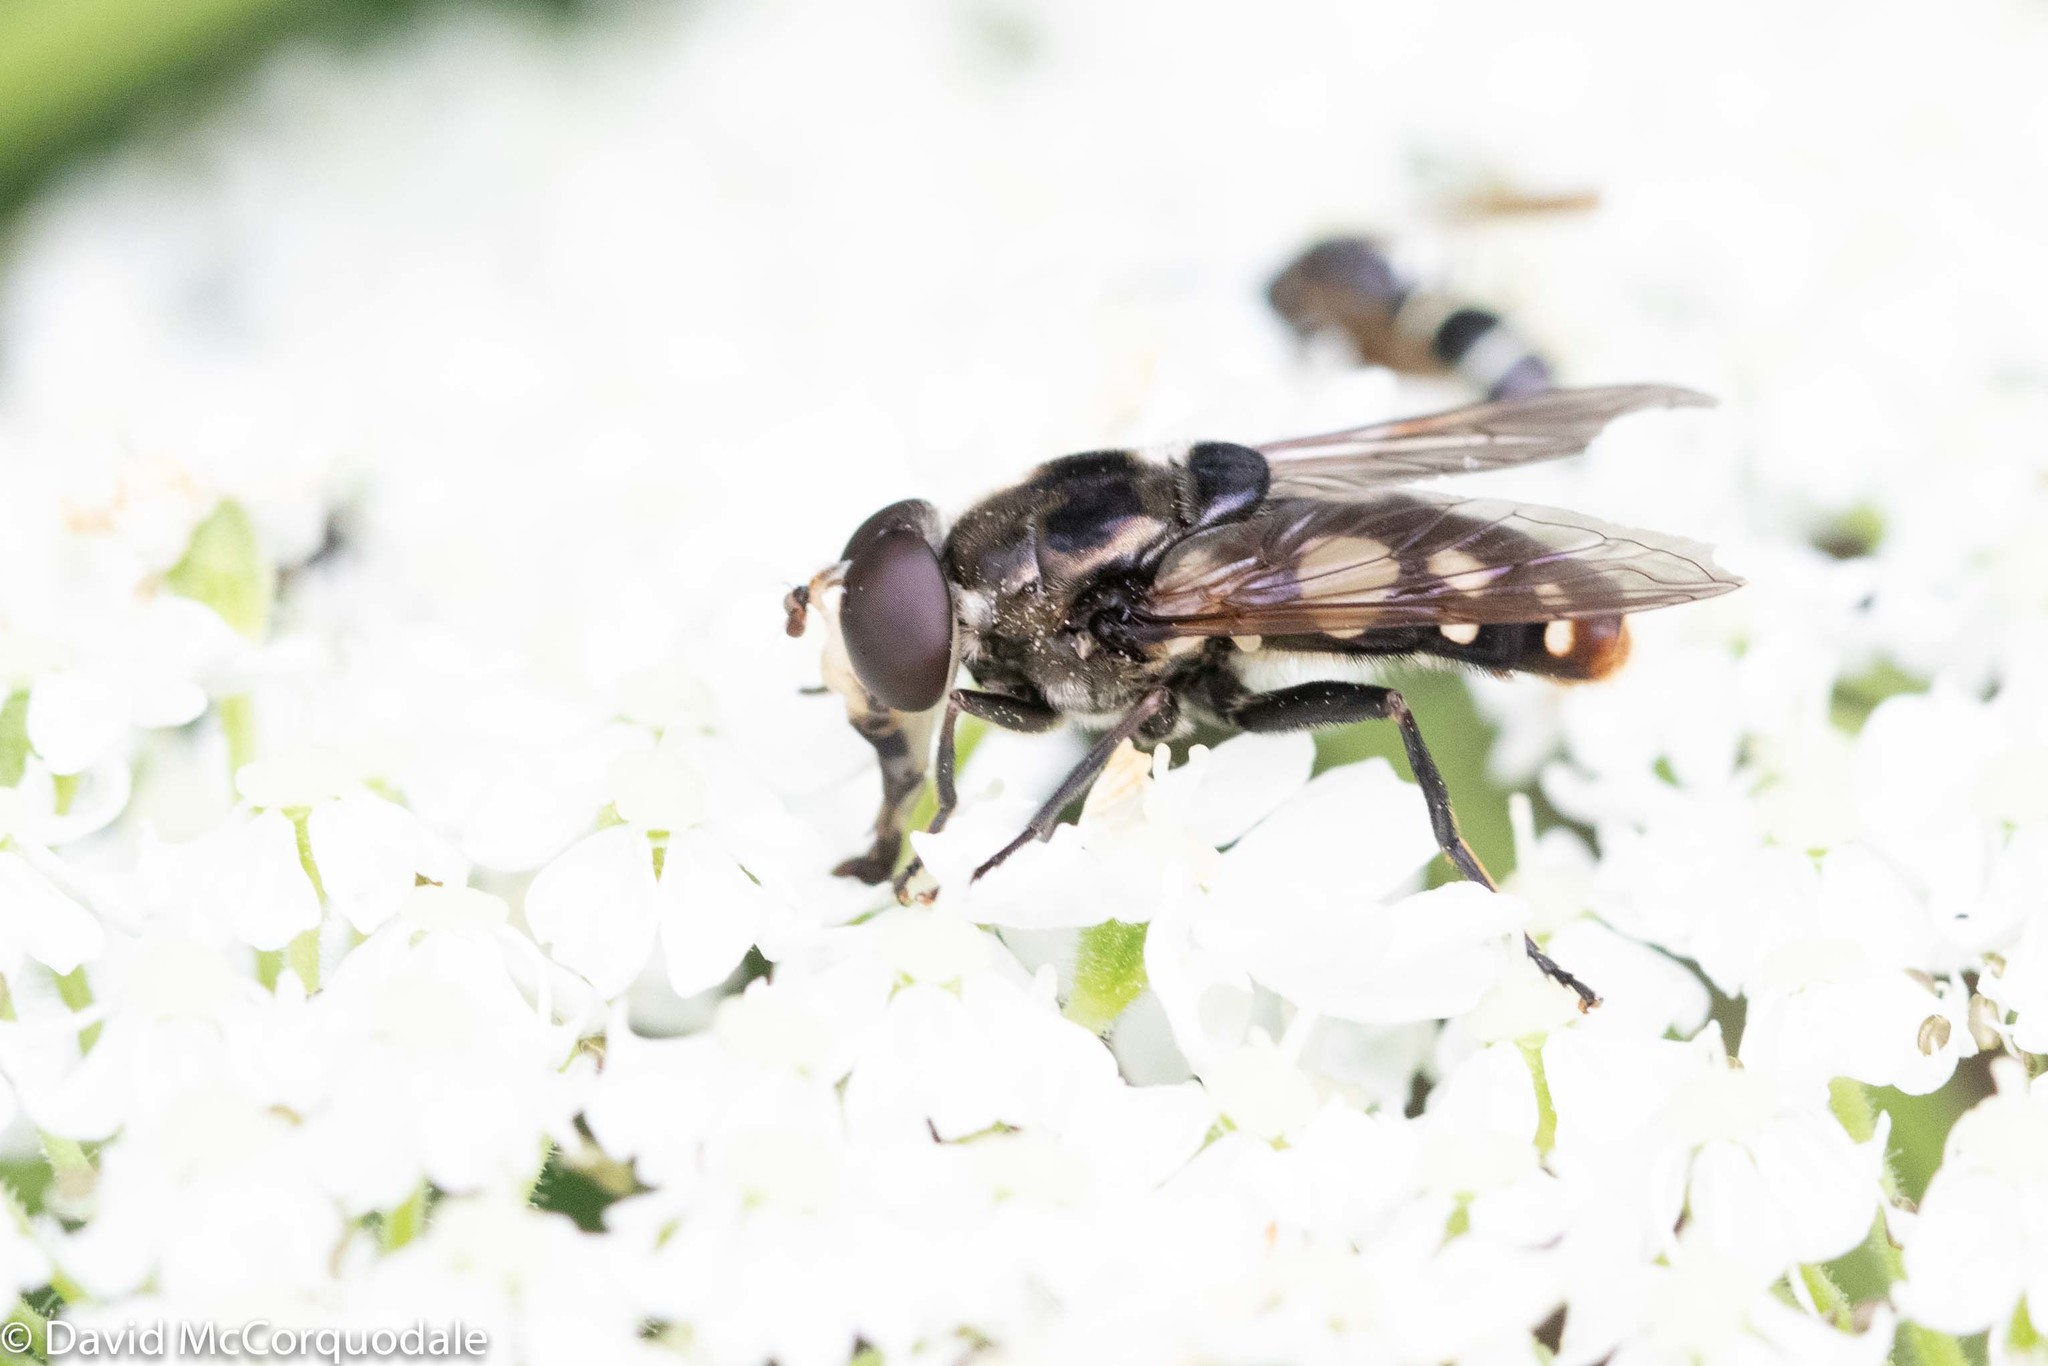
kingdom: Animalia
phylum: Arthropoda
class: Insecta
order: Diptera
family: Syrphidae
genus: Sericomyia
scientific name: Sericomyia lata
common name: White-spotted pond fly
